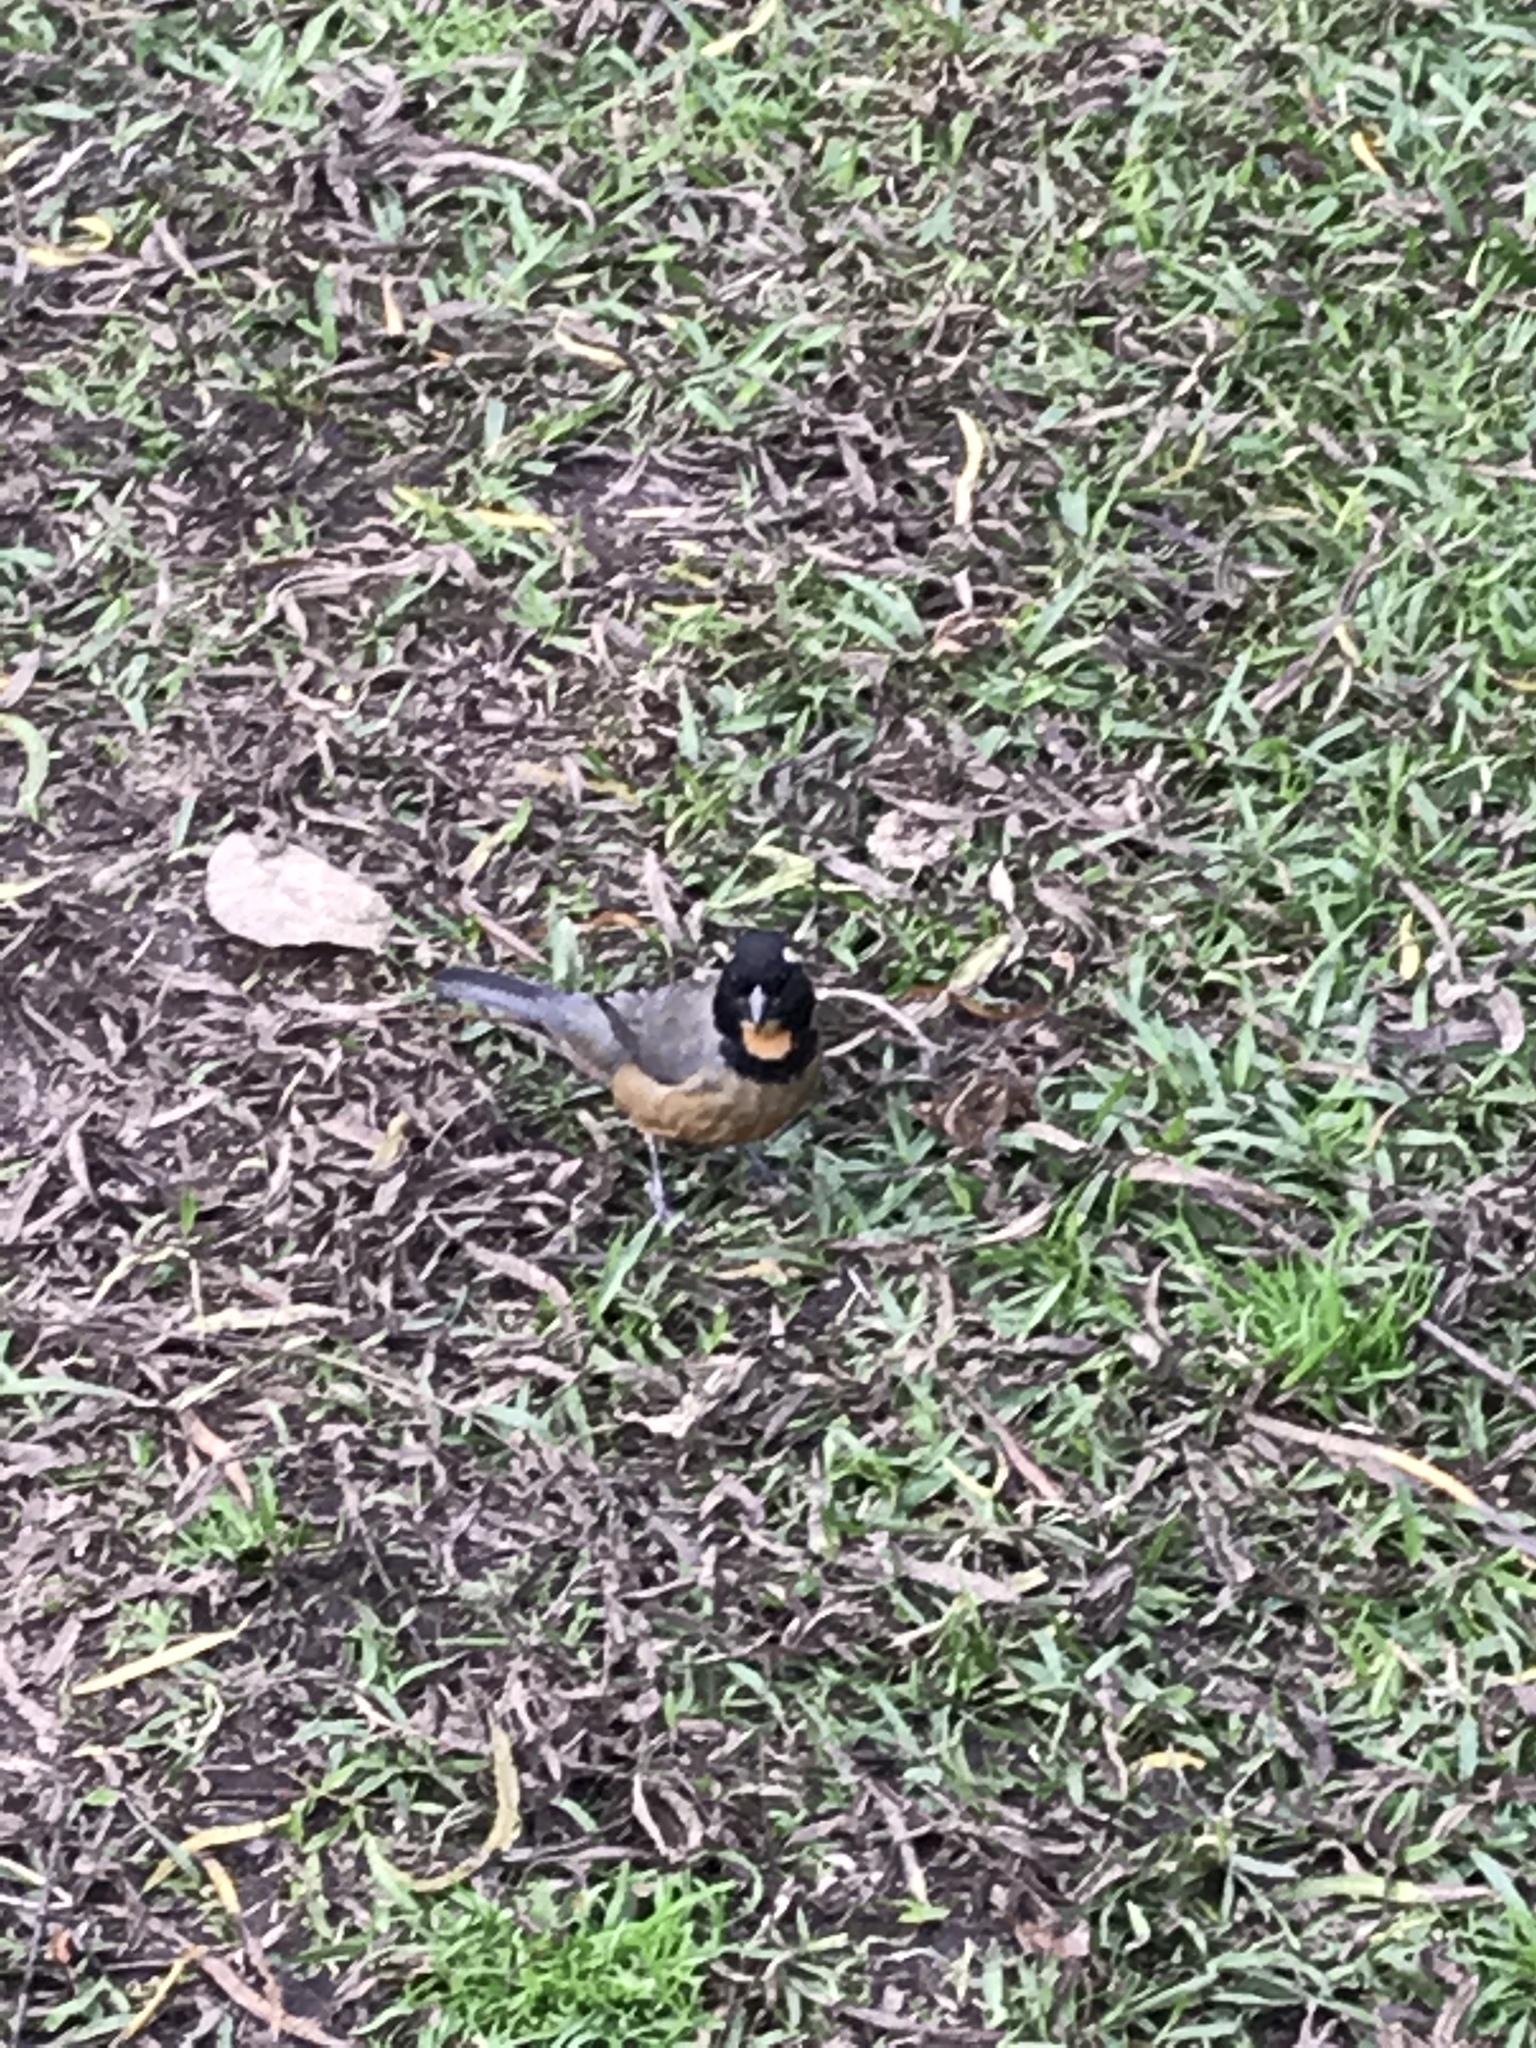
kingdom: Animalia
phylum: Chordata
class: Aves
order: Passeriformes
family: Thraupidae
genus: Saltator
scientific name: Saltator aurantiirostris
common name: Golden-billed saltator
